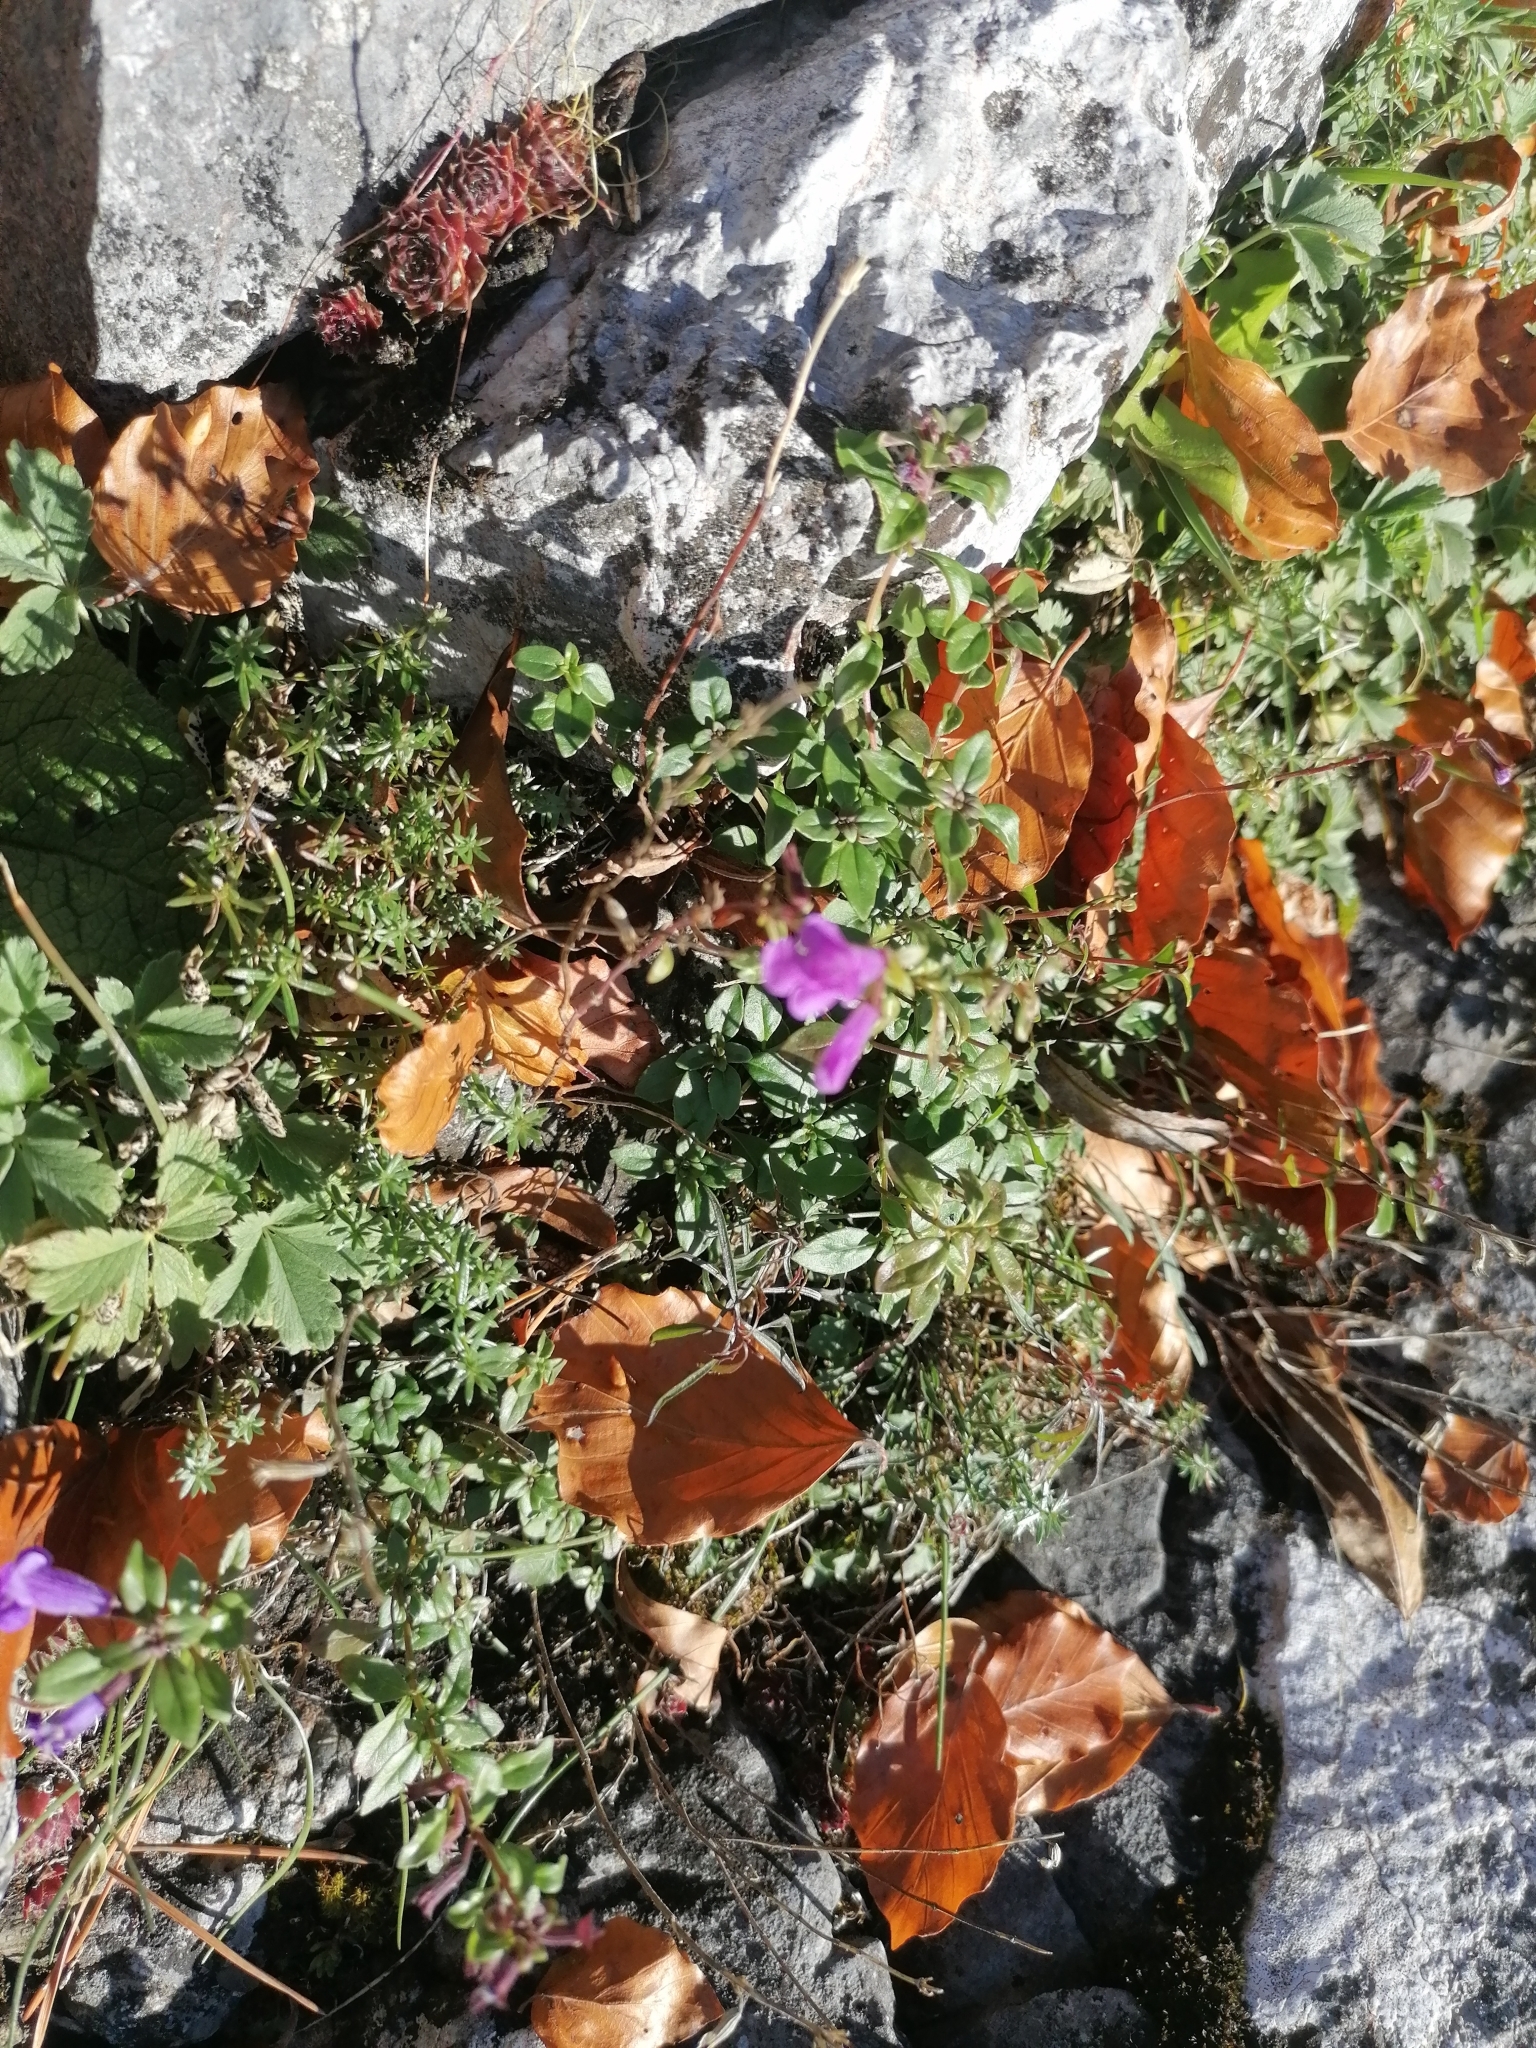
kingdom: Plantae
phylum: Tracheophyta
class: Magnoliopsida
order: Lamiales
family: Lamiaceae
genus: Clinopodium
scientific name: Clinopodium alpinum
